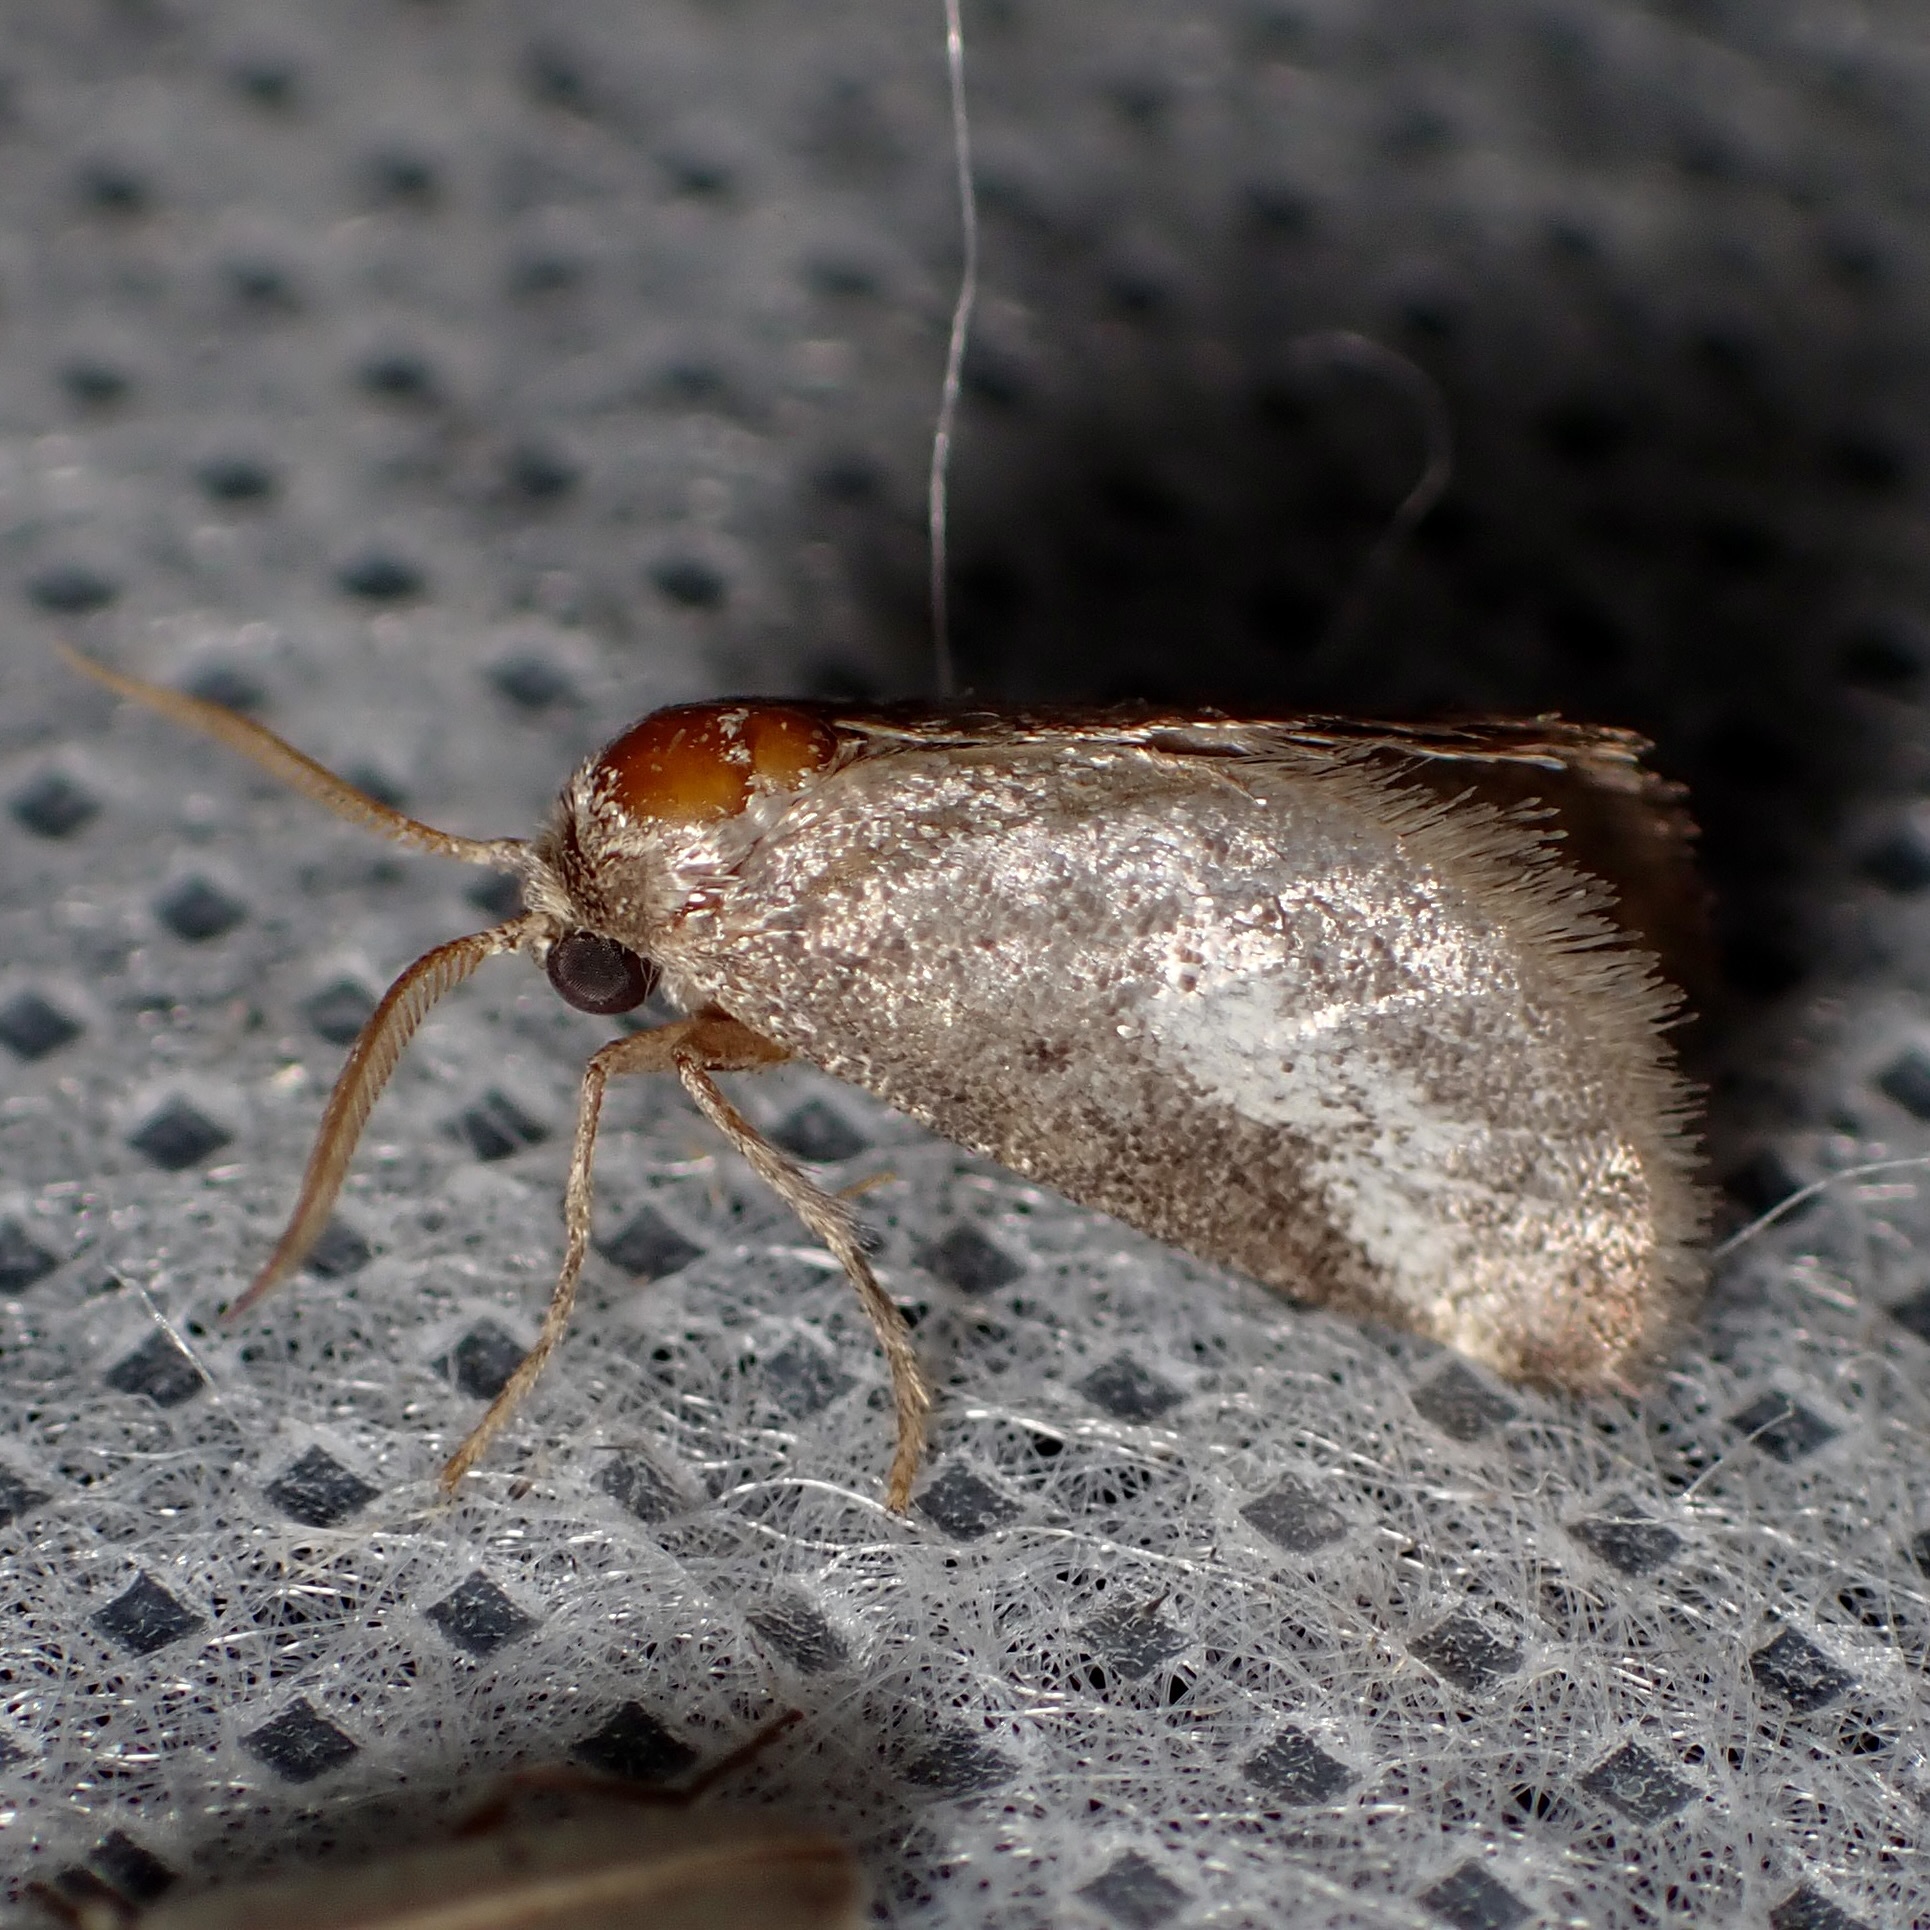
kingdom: Animalia
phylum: Arthropoda
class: Insecta
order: Lepidoptera
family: Limacodidae
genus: Cryptophobetron
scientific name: Cryptophobetron oropeso
